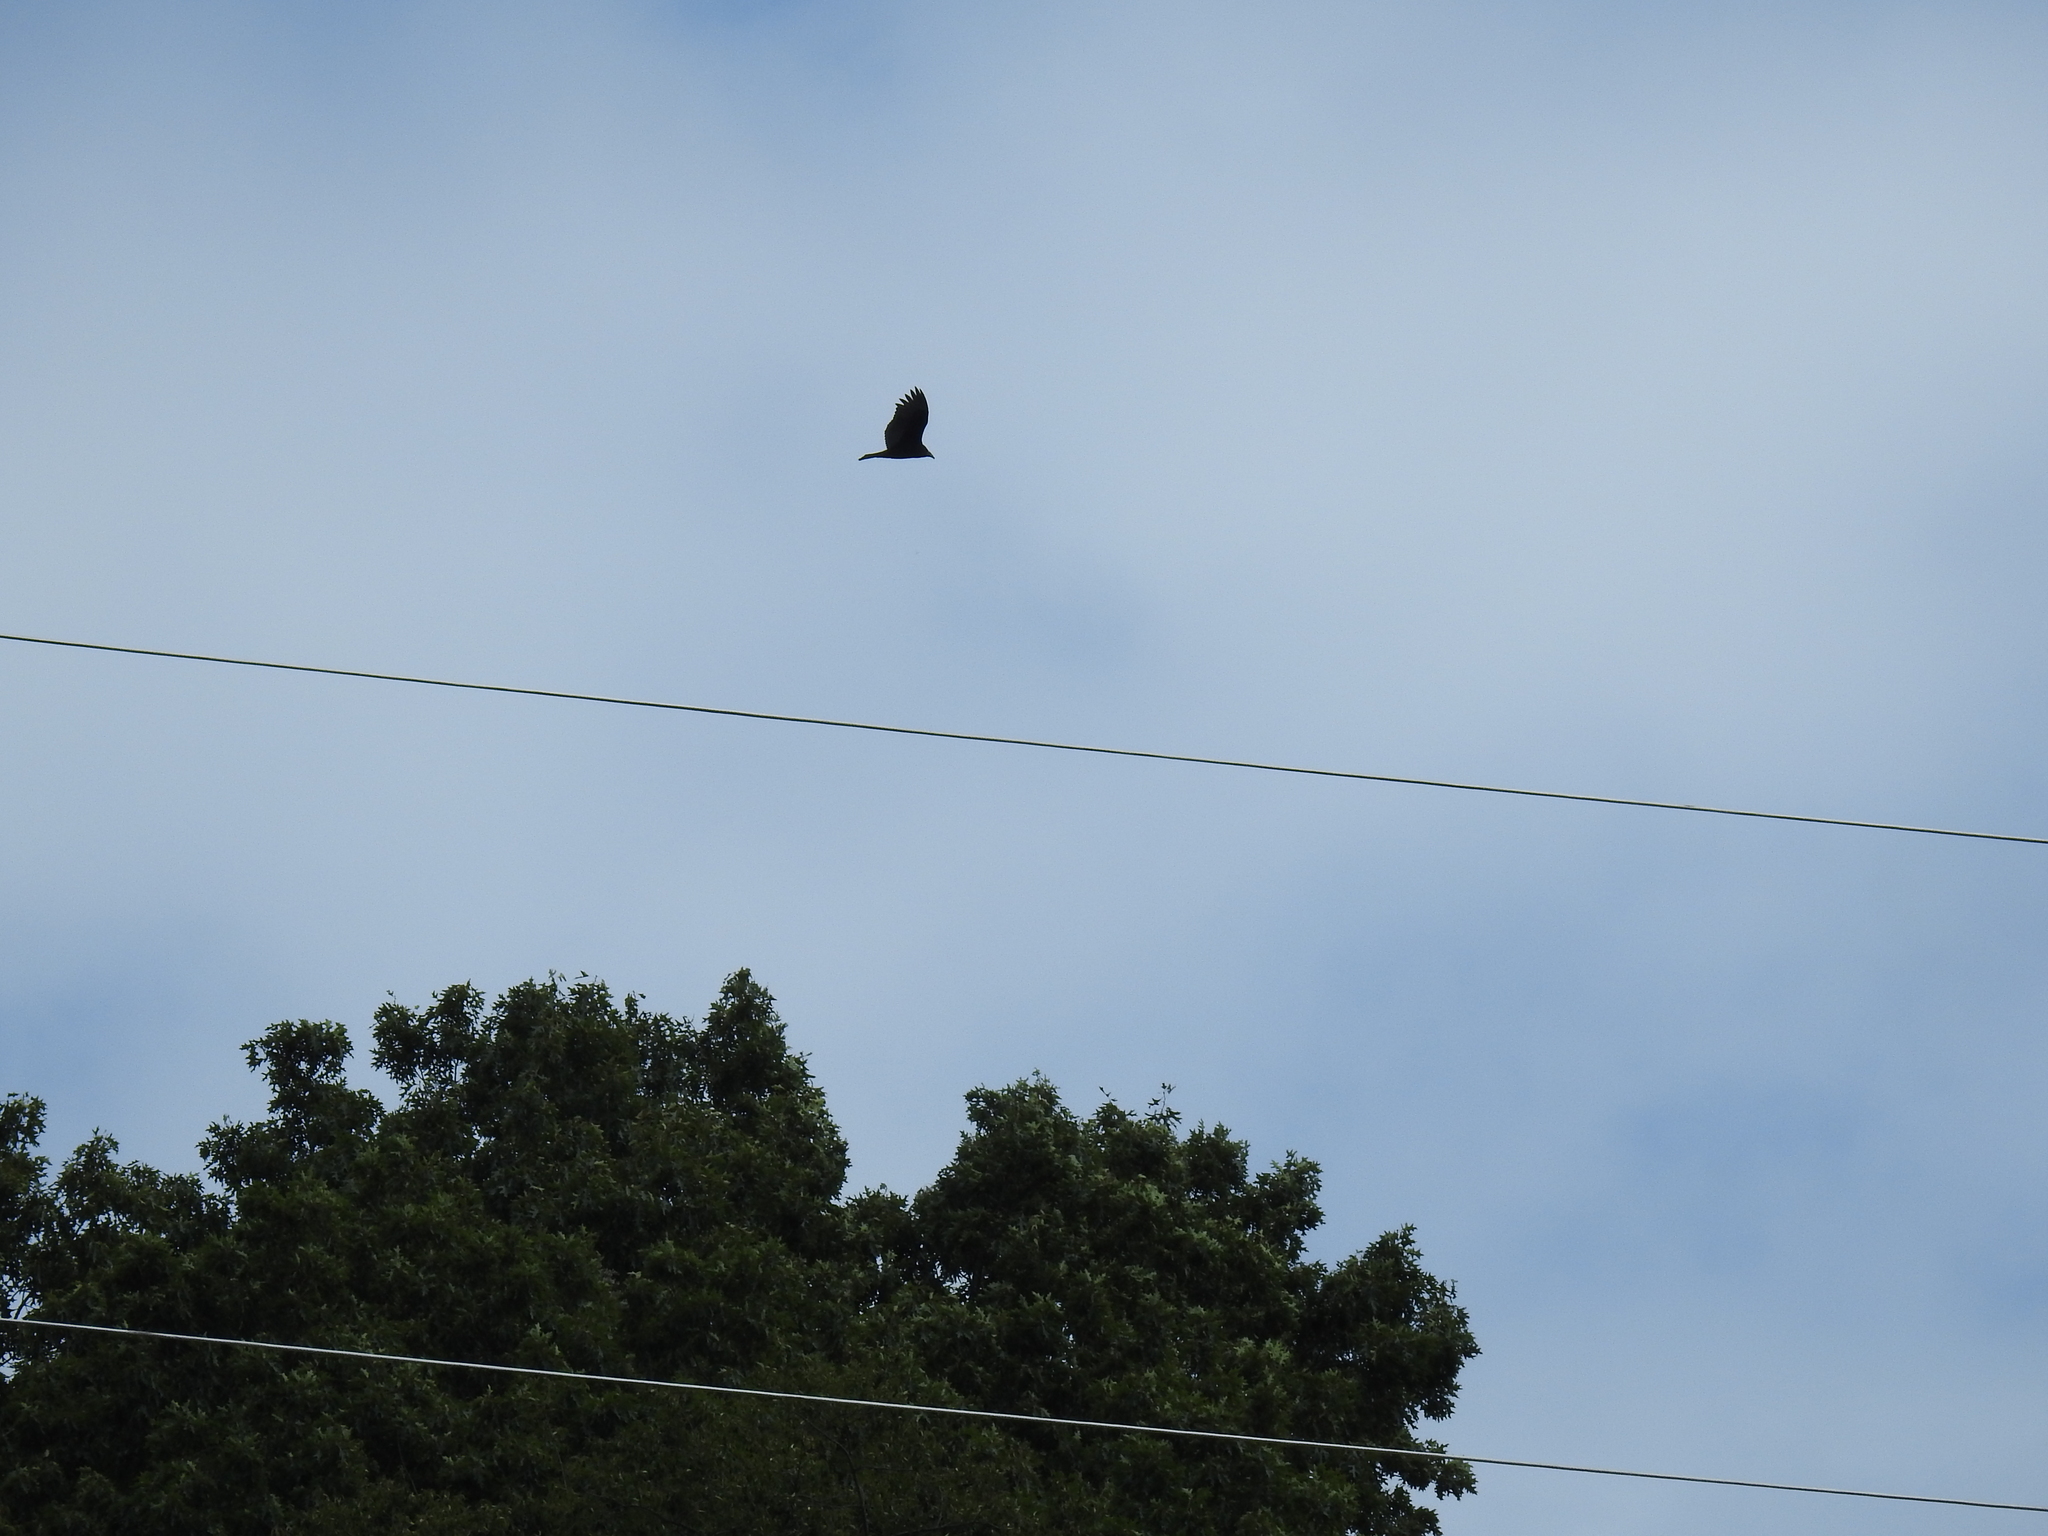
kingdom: Animalia
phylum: Chordata
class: Aves
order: Accipitriformes
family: Cathartidae
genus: Cathartes
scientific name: Cathartes aura
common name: Turkey vulture
